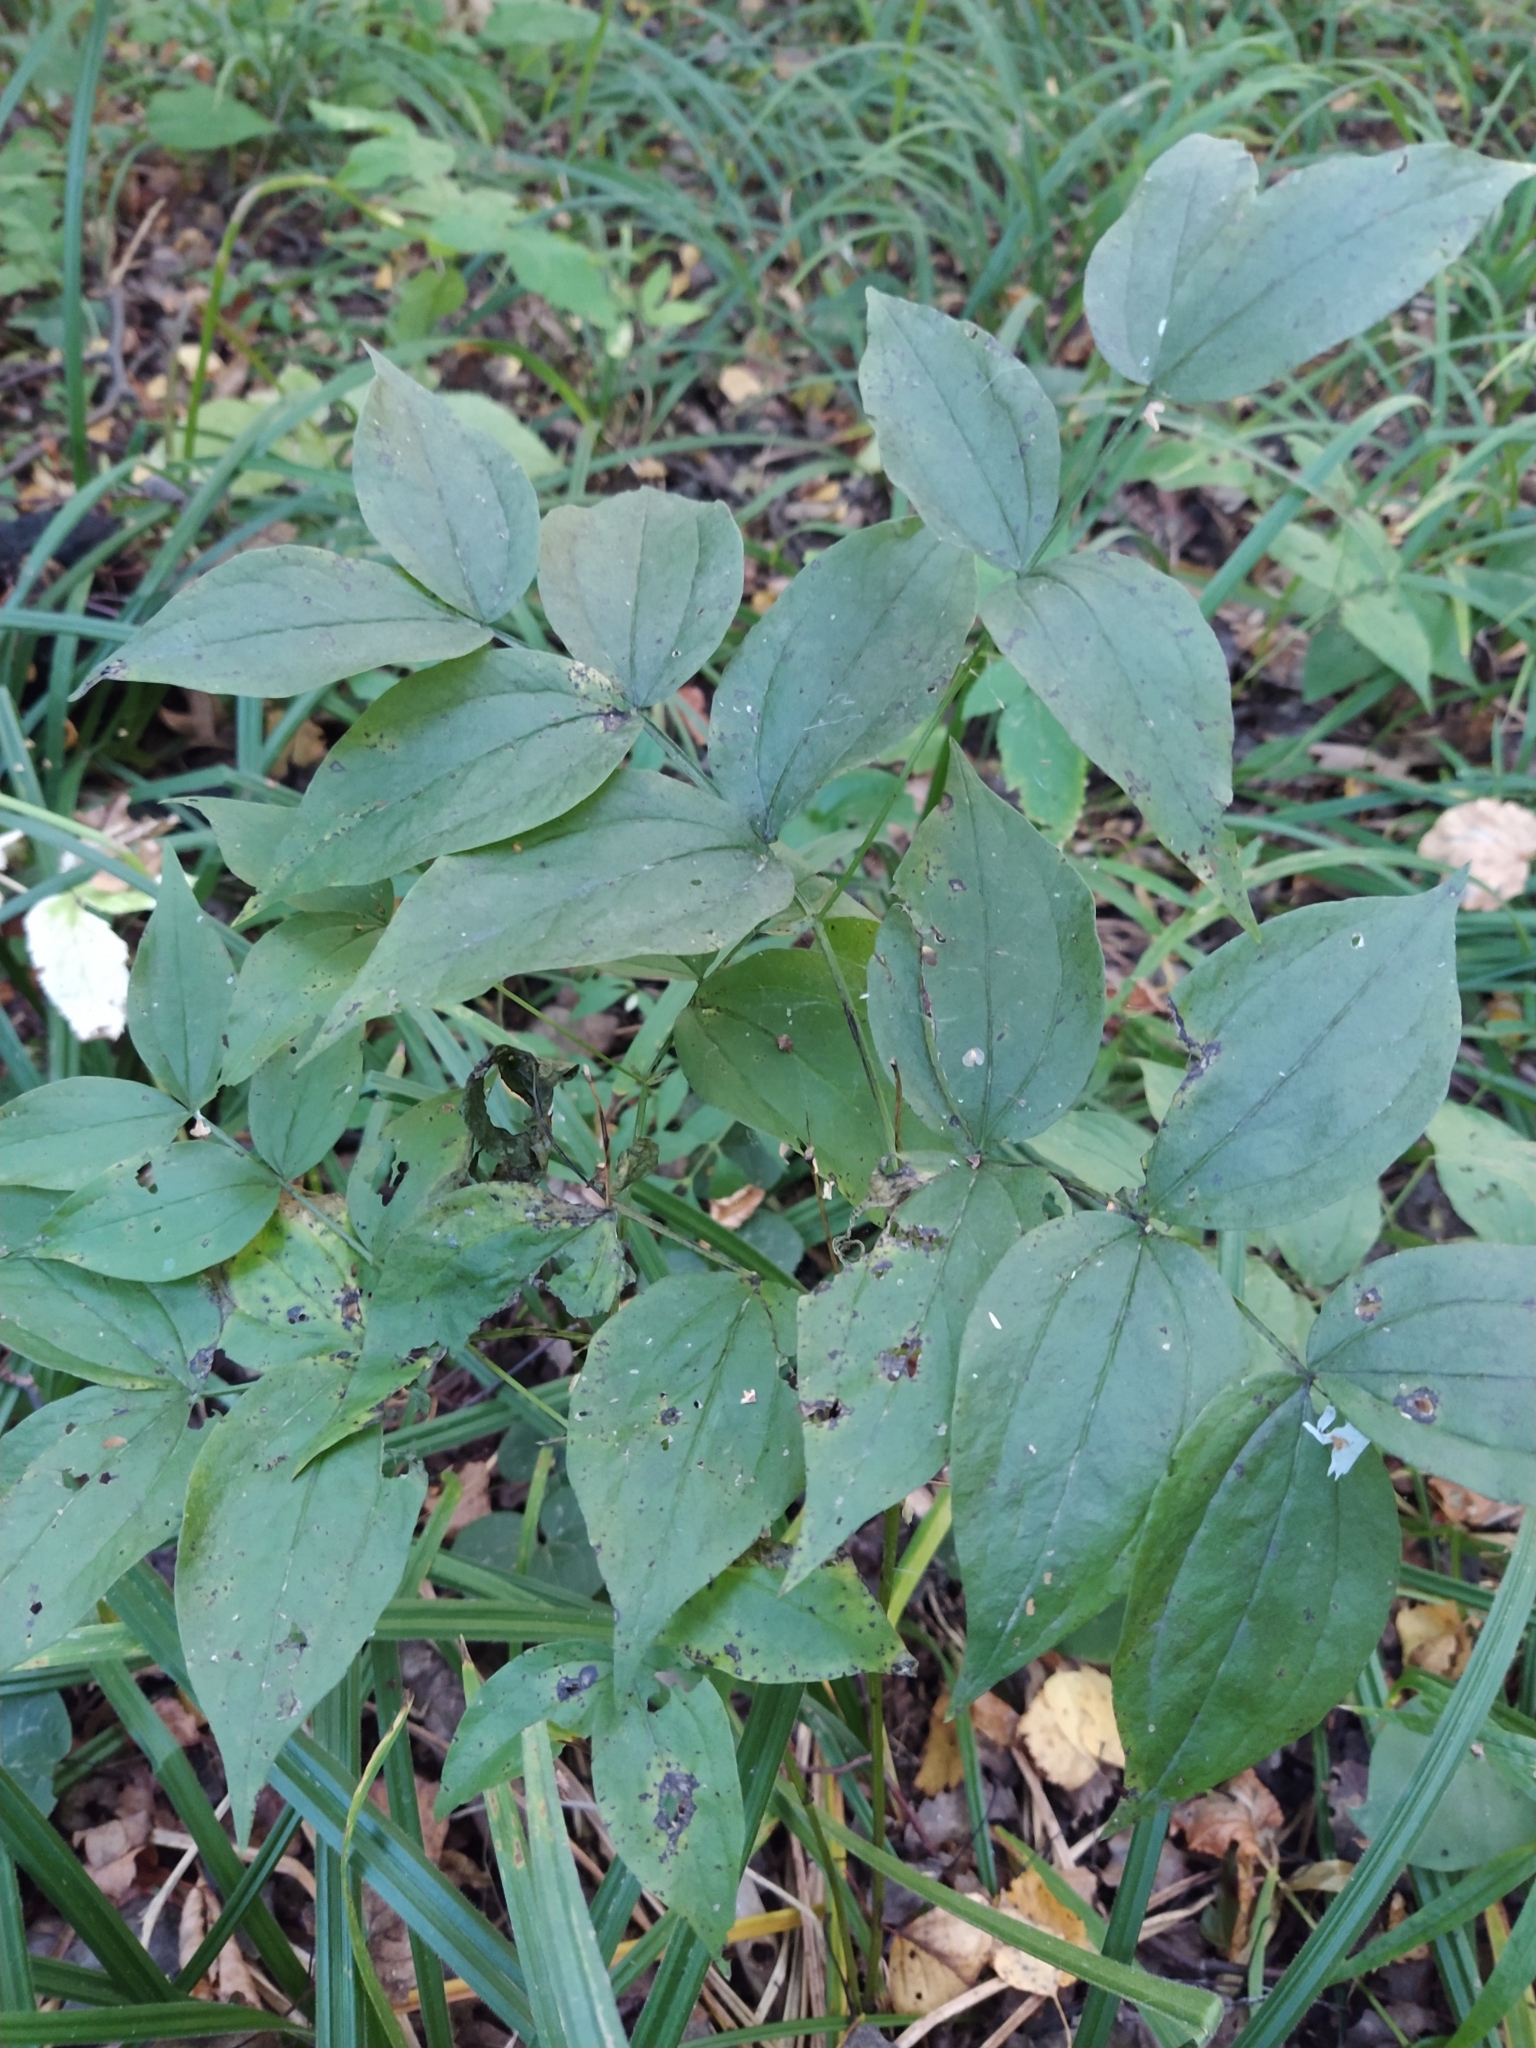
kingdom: Plantae
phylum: Tracheophyta
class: Magnoliopsida
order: Fabales
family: Fabaceae
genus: Lathyrus
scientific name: Lathyrus vernus
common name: Spring pea
